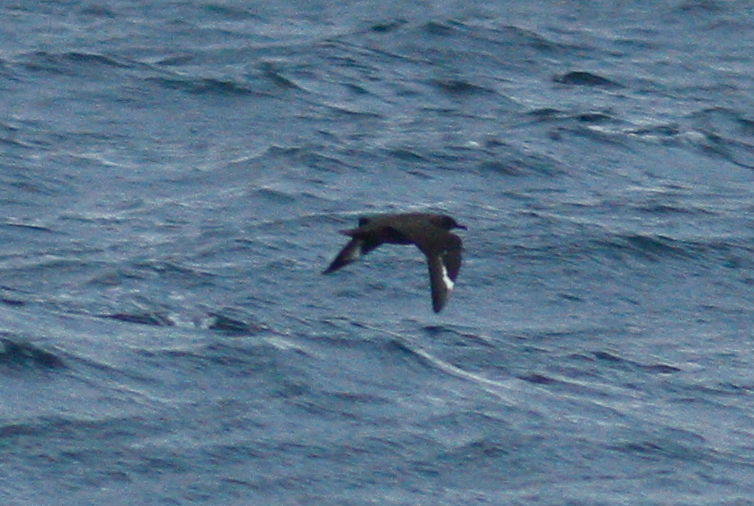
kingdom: Animalia
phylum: Chordata
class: Aves
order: Charadriiformes
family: Stercorariidae
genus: Stercorarius
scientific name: Stercorarius skua
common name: Great skua
